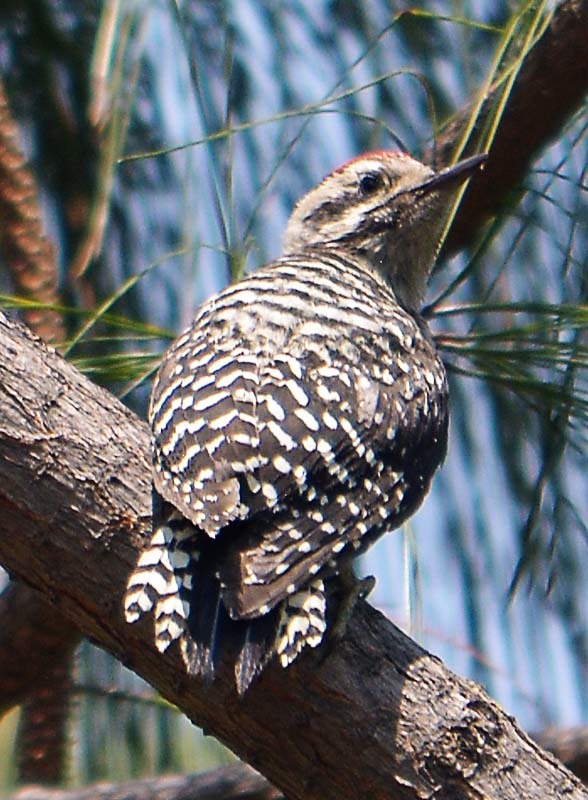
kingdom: Animalia
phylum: Chordata
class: Aves
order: Piciformes
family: Picidae
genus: Dryobates
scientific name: Dryobates scalaris
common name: Ladder-backed woodpecker
